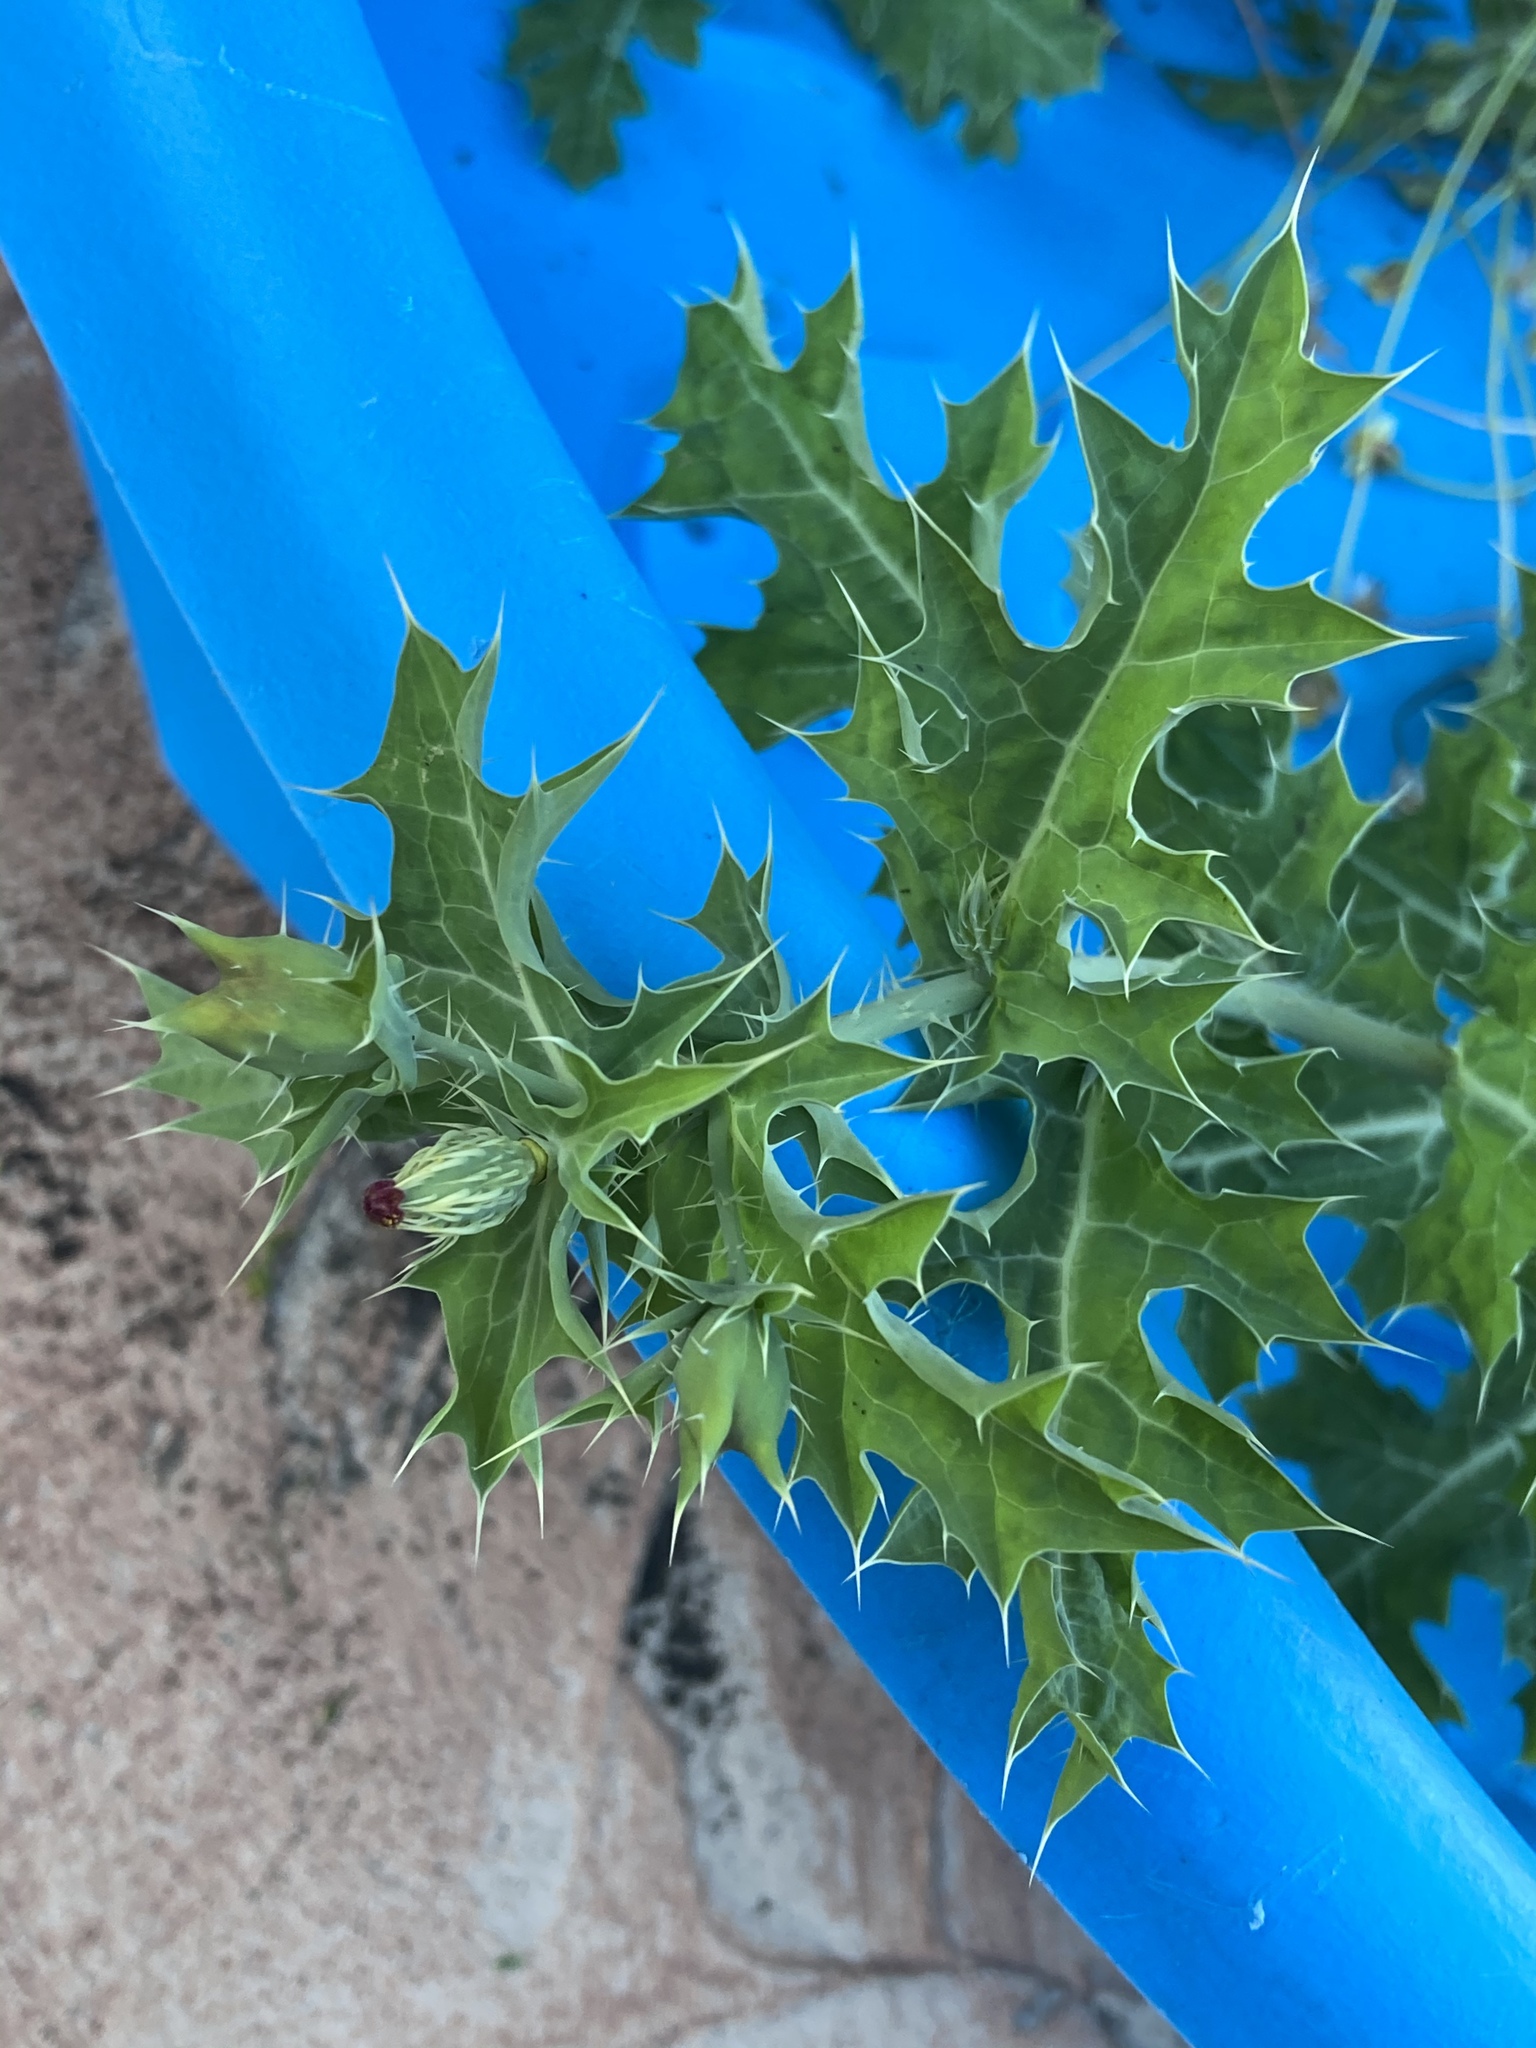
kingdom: Plantae
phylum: Tracheophyta
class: Magnoliopsida
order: Ranunculales
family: Papaveraceae
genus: Argemone
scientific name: Argemone mexicana
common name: Mexican poppy
